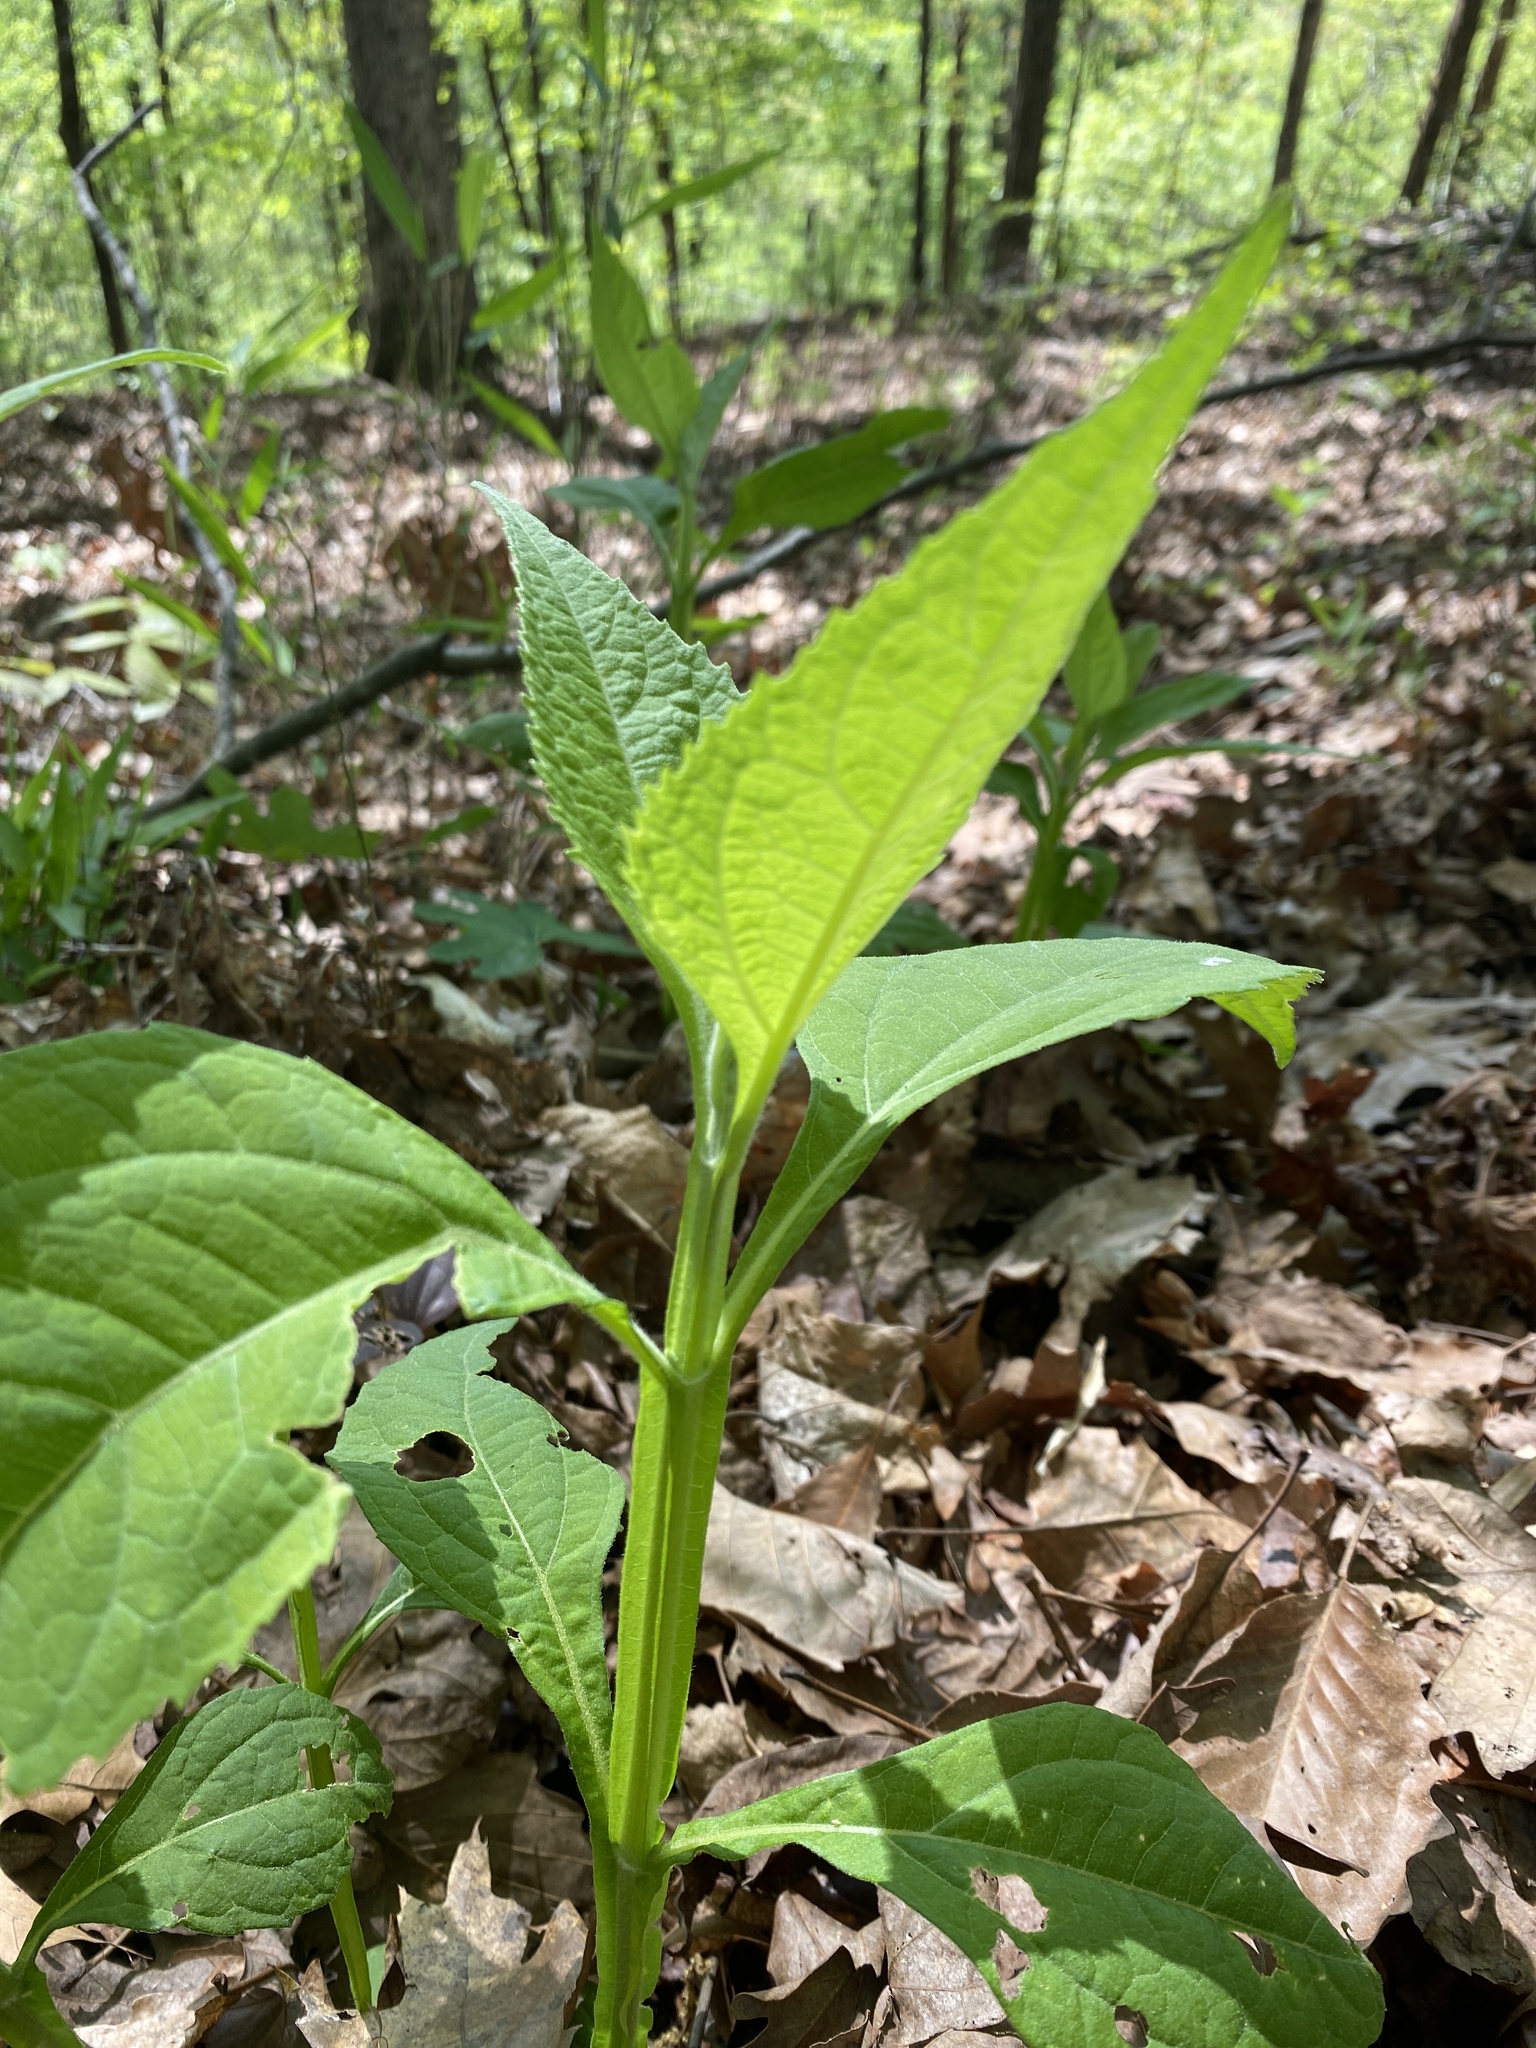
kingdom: Plantae
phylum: Tracheophyta
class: Magnoliopsida
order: Asterales
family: Asteraceae
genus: Verbesina
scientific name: Verbesina occidentalis
